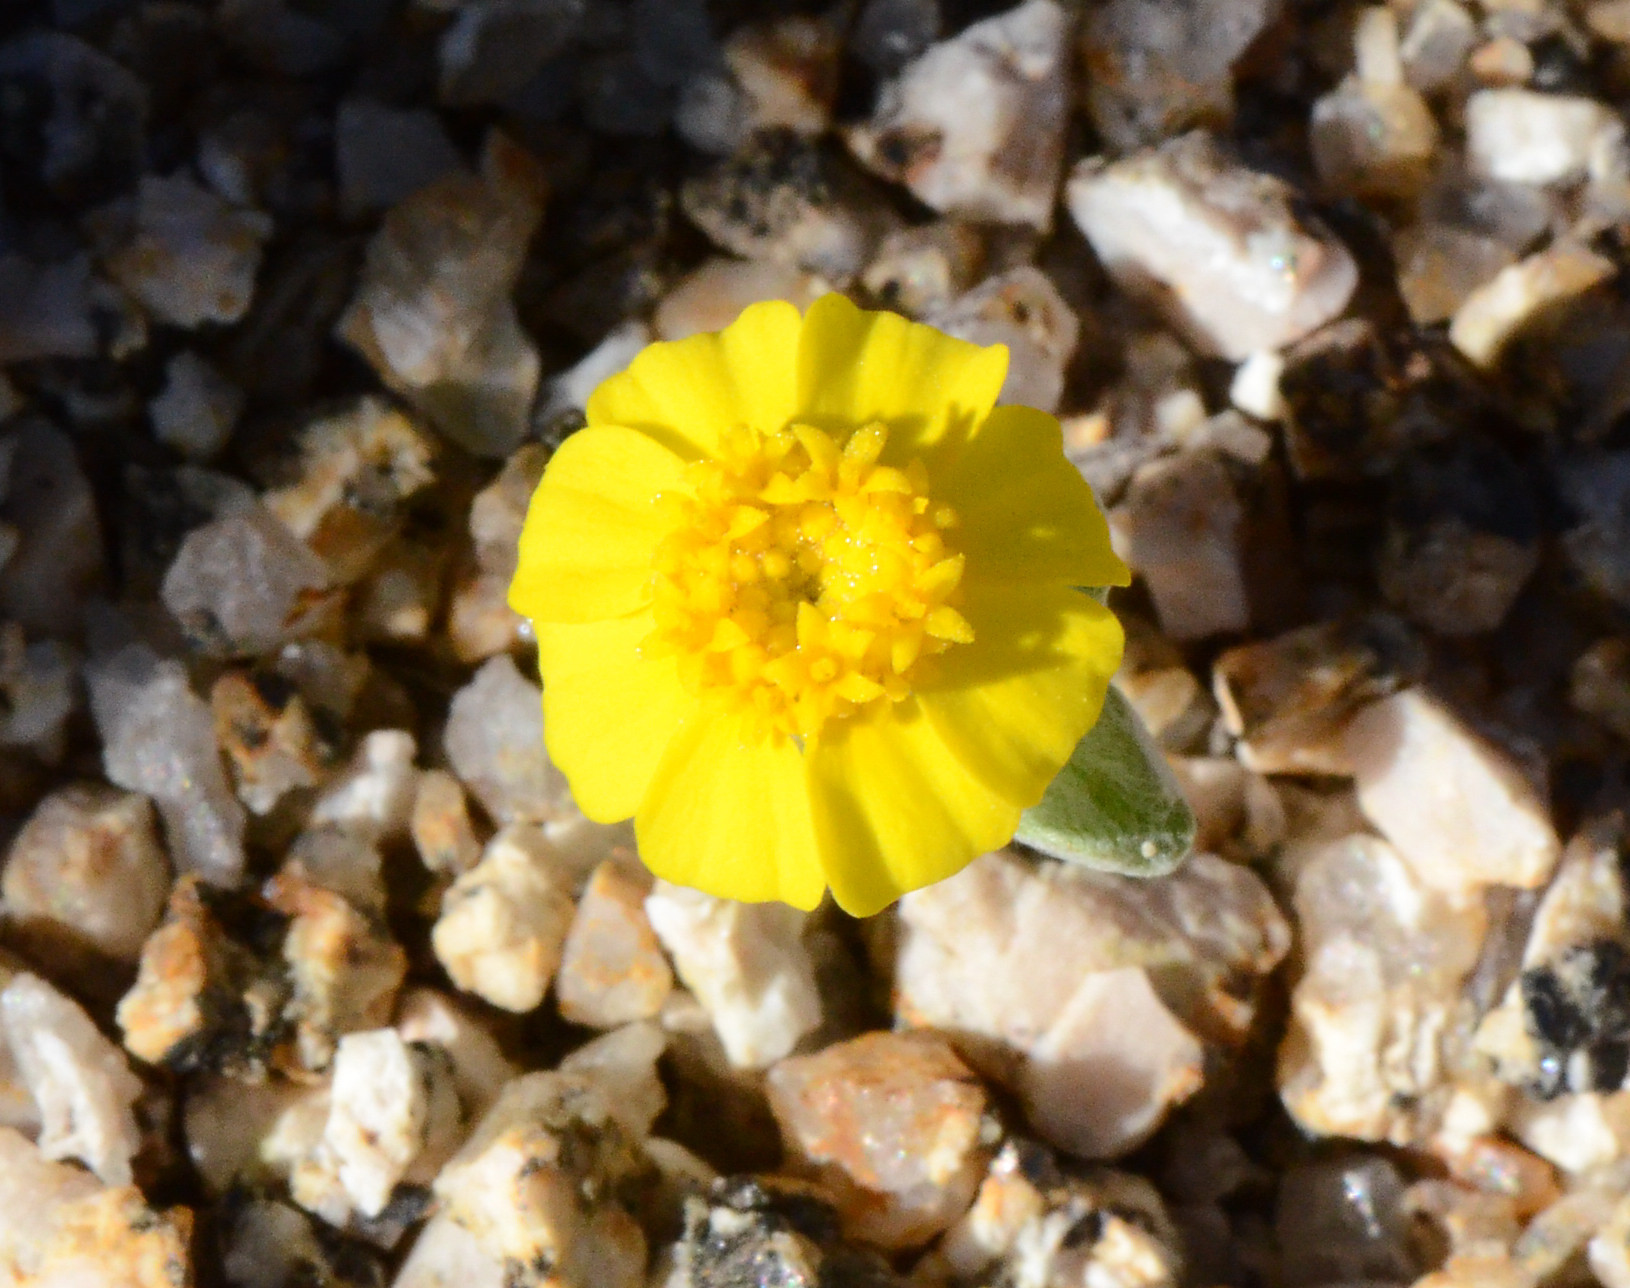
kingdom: Plantae
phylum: Tracheophyta
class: Magnoliopsida
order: Asterales
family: Asteraceae
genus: Eriophyllum
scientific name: Eriophyllum wallacei
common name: Wallace's woolly daisy
